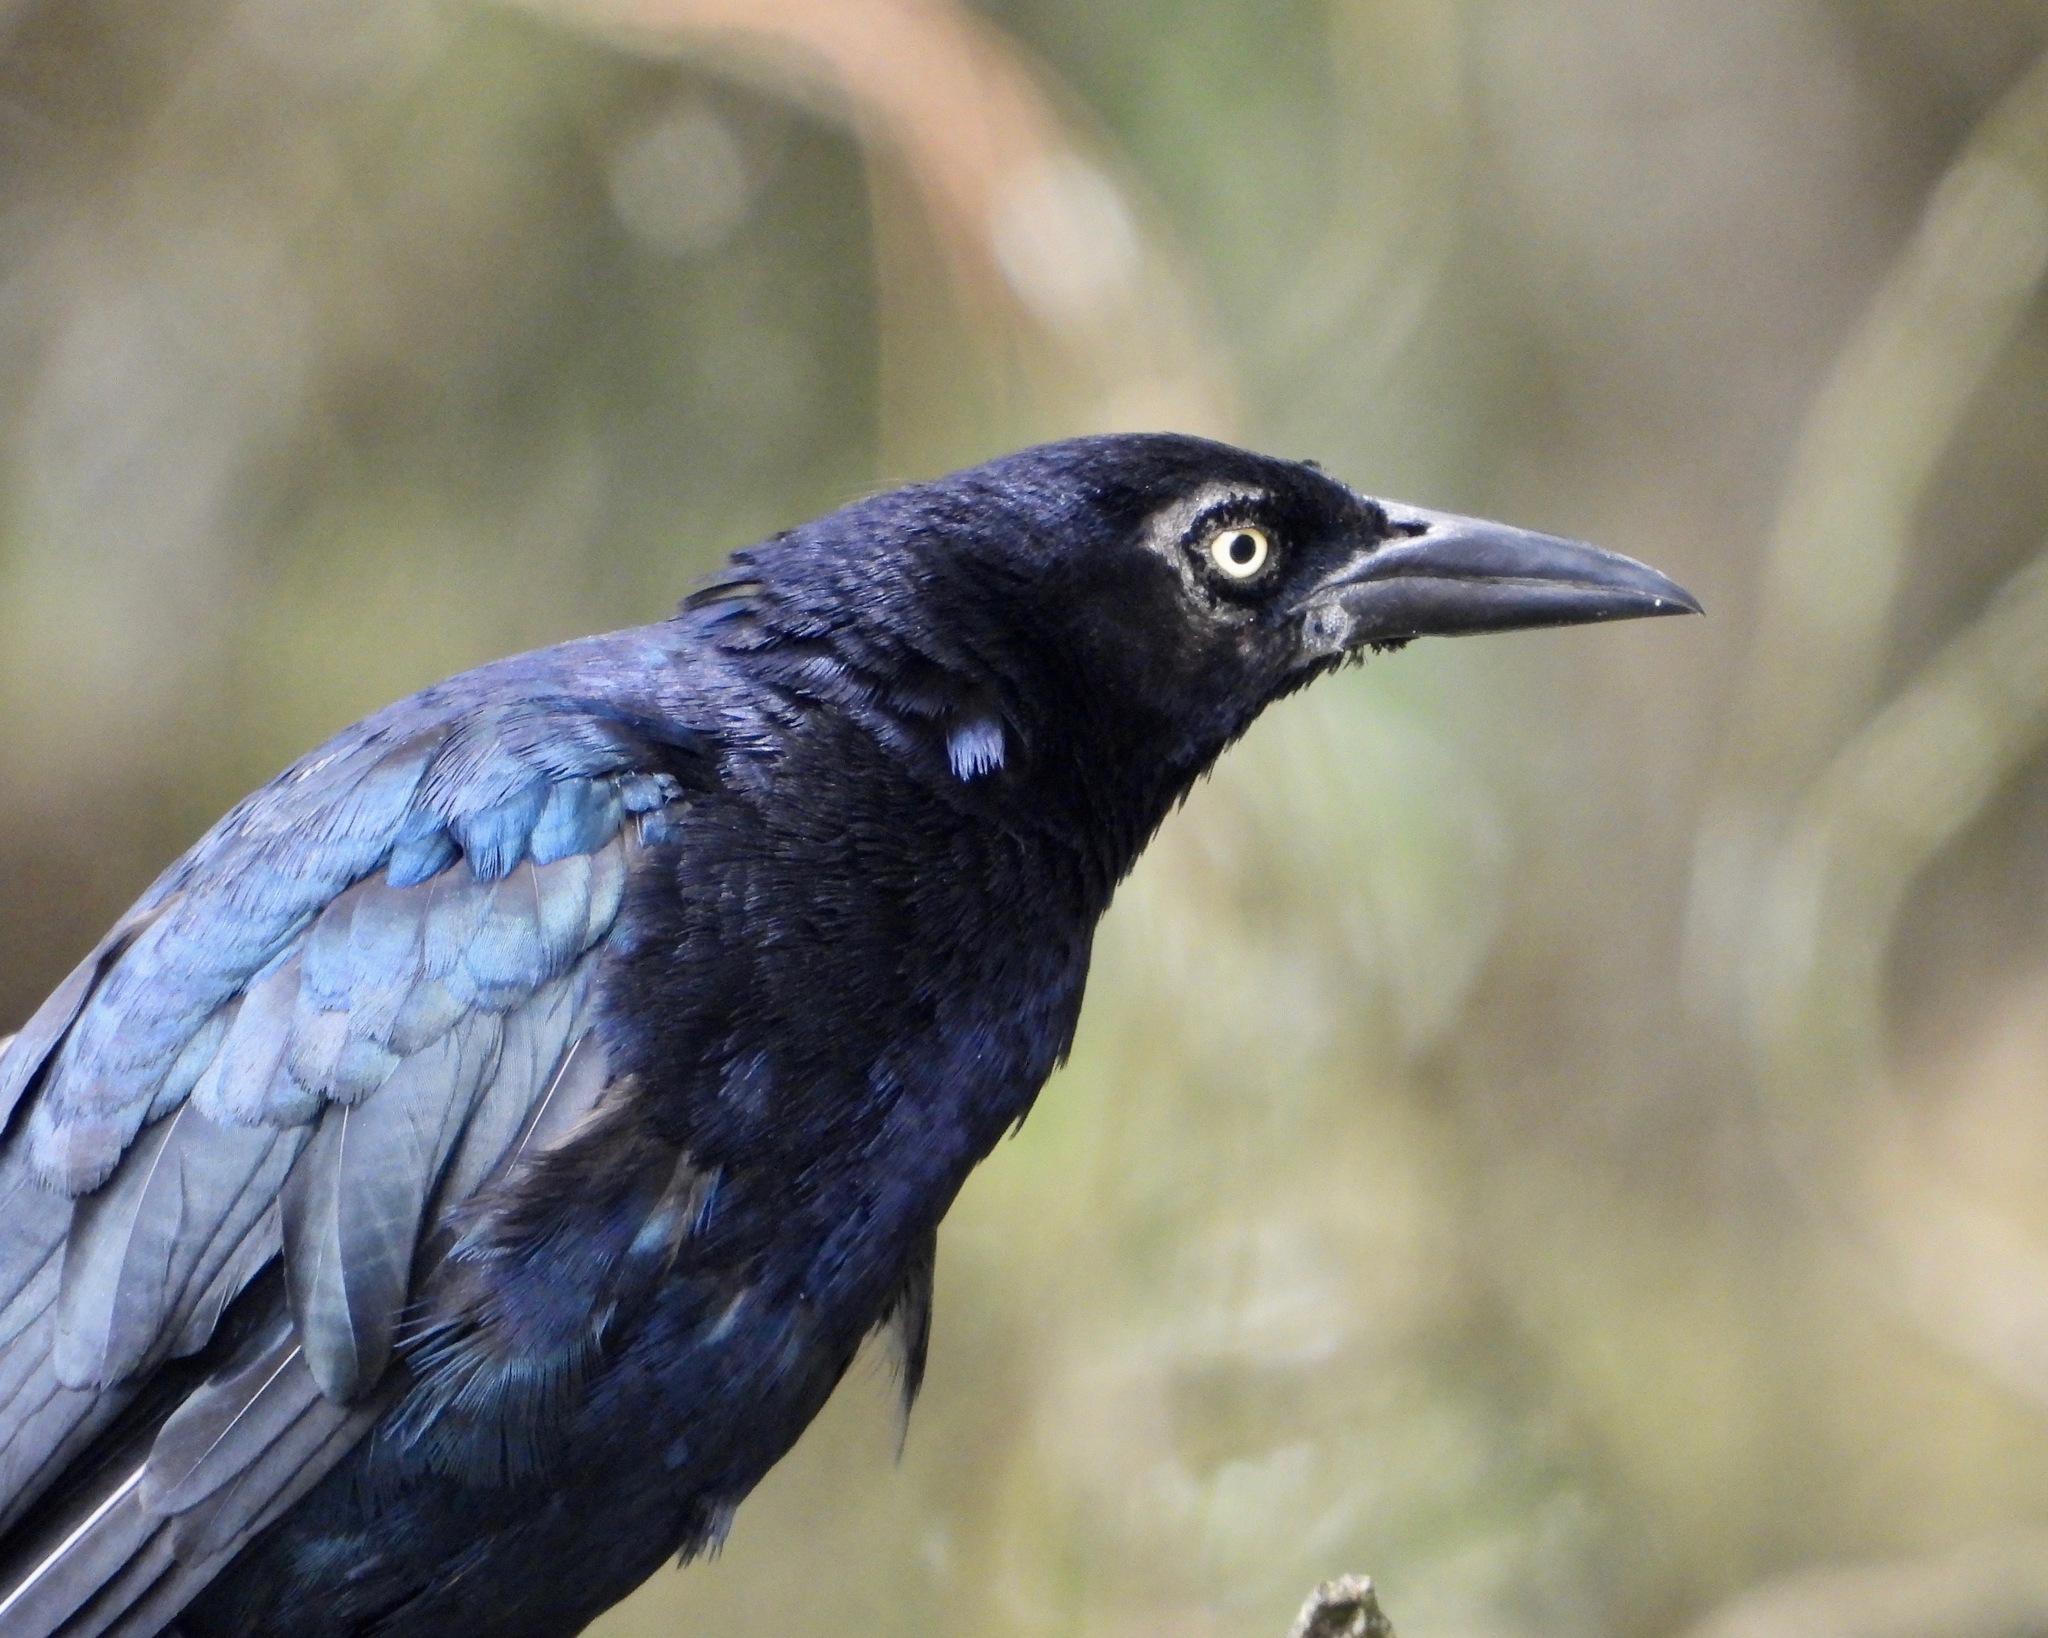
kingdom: Animalia
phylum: Chordata
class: Aves
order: Passeriformes
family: Icteridae
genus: Quiscalus
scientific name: Quiscalus mexicanus
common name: Great-tailed grackle
